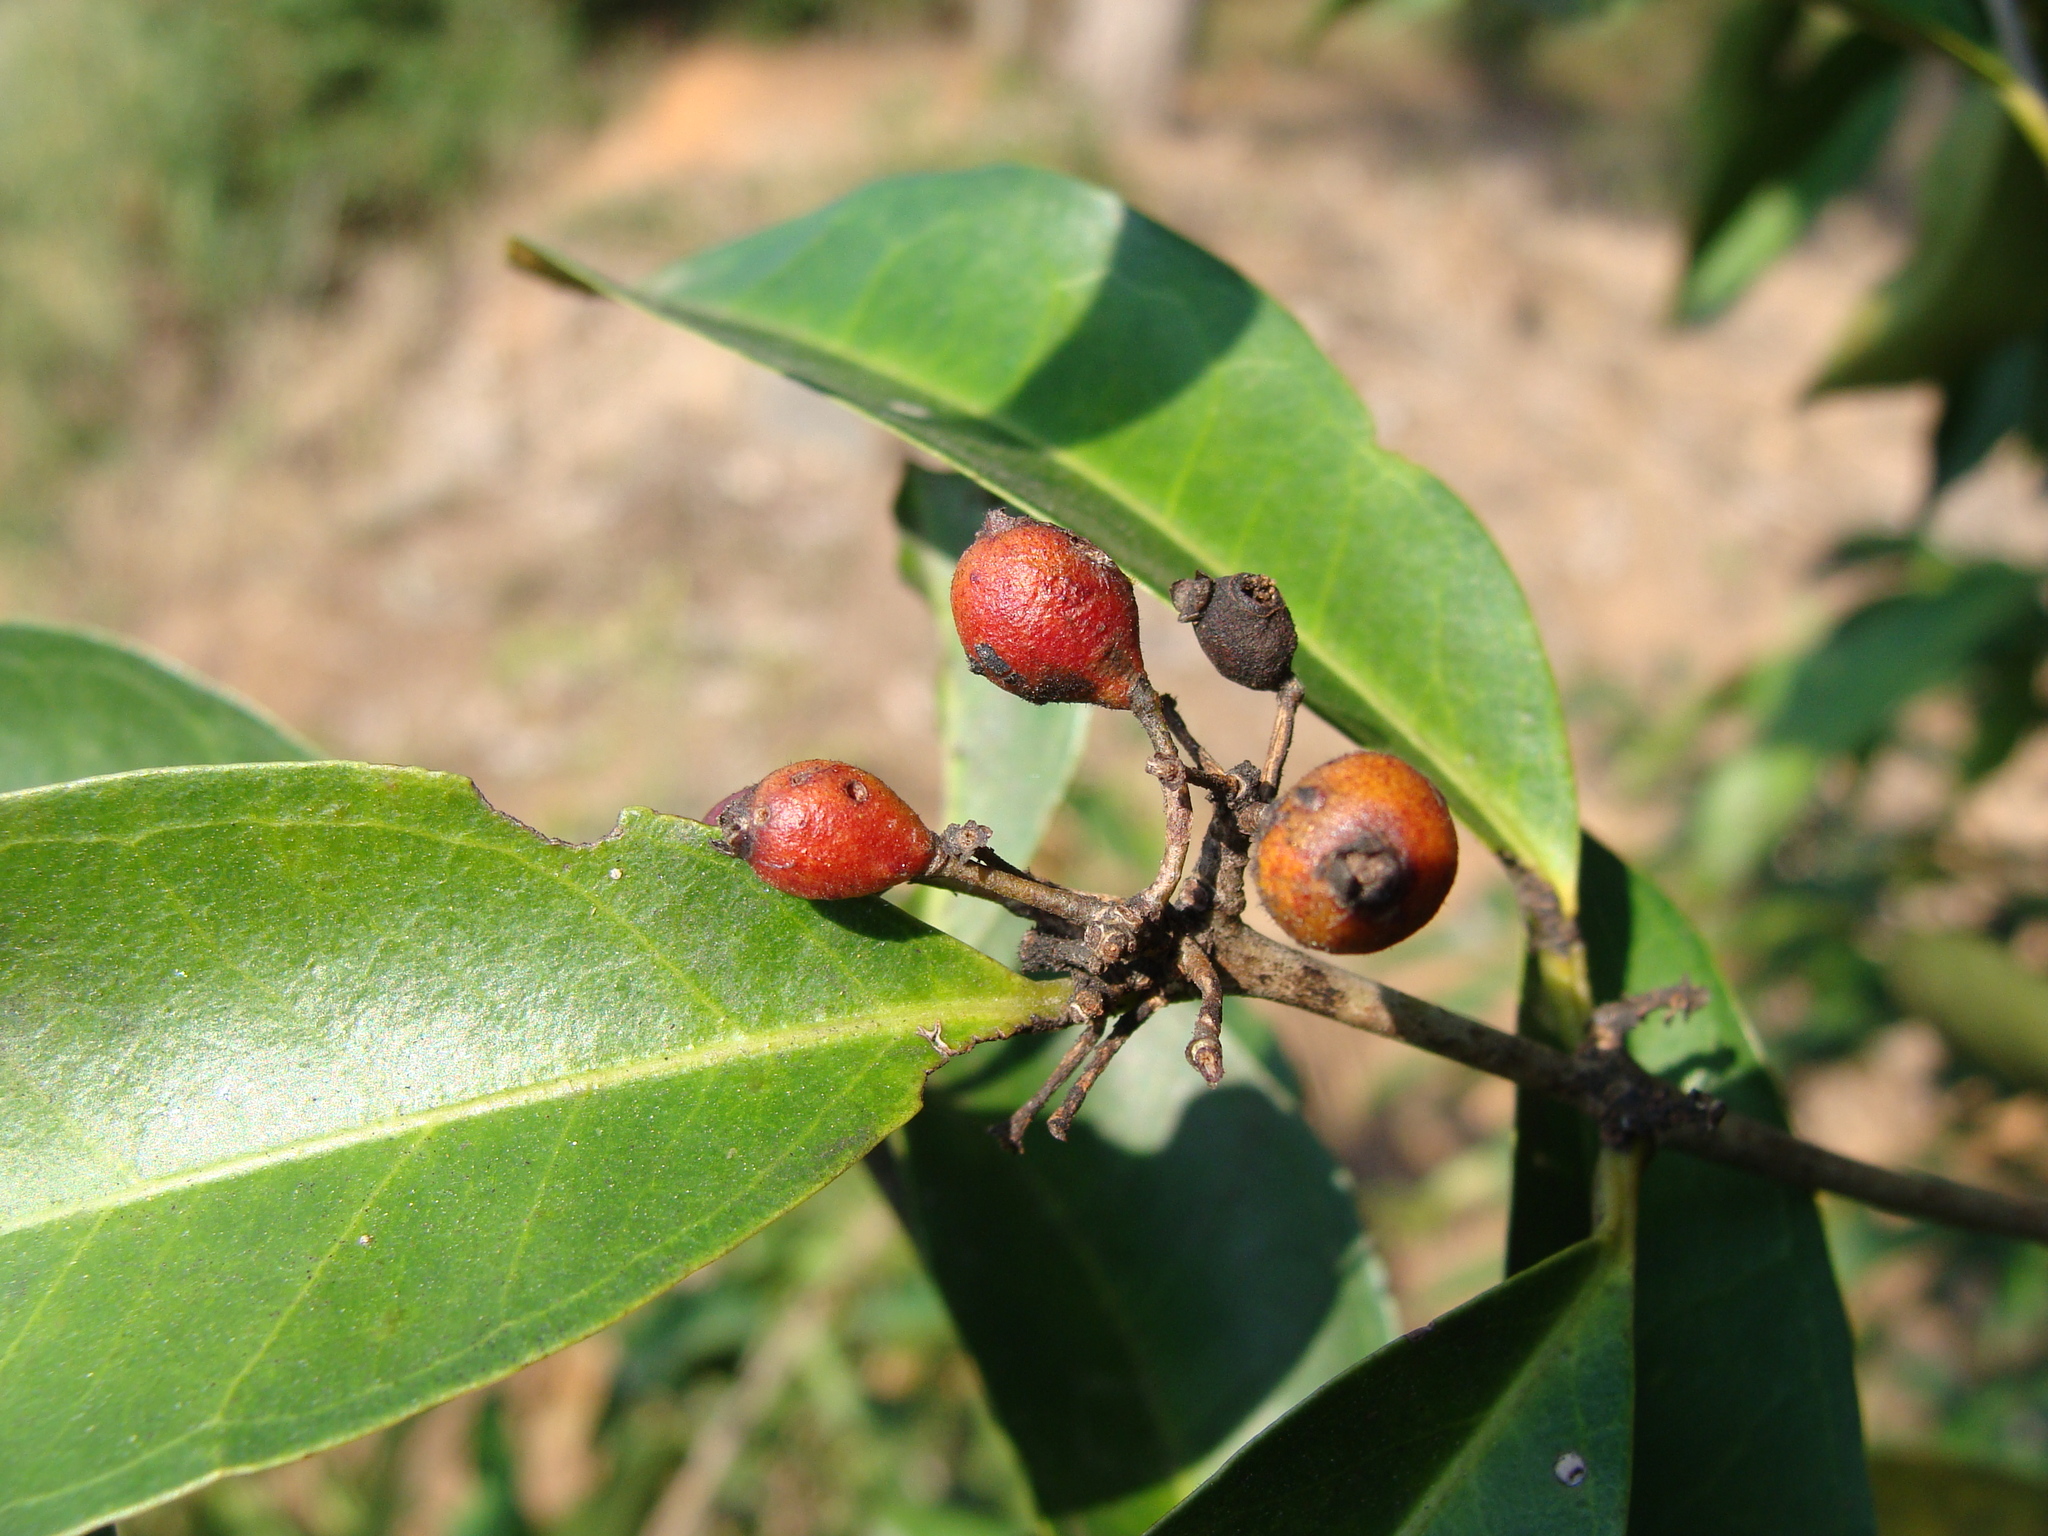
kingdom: Plantae
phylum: Tracheophyta
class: Magnoliopsida
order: Myrtales
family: Myrtaceae
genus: Eugenia
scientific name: Eugenia choapamensis
